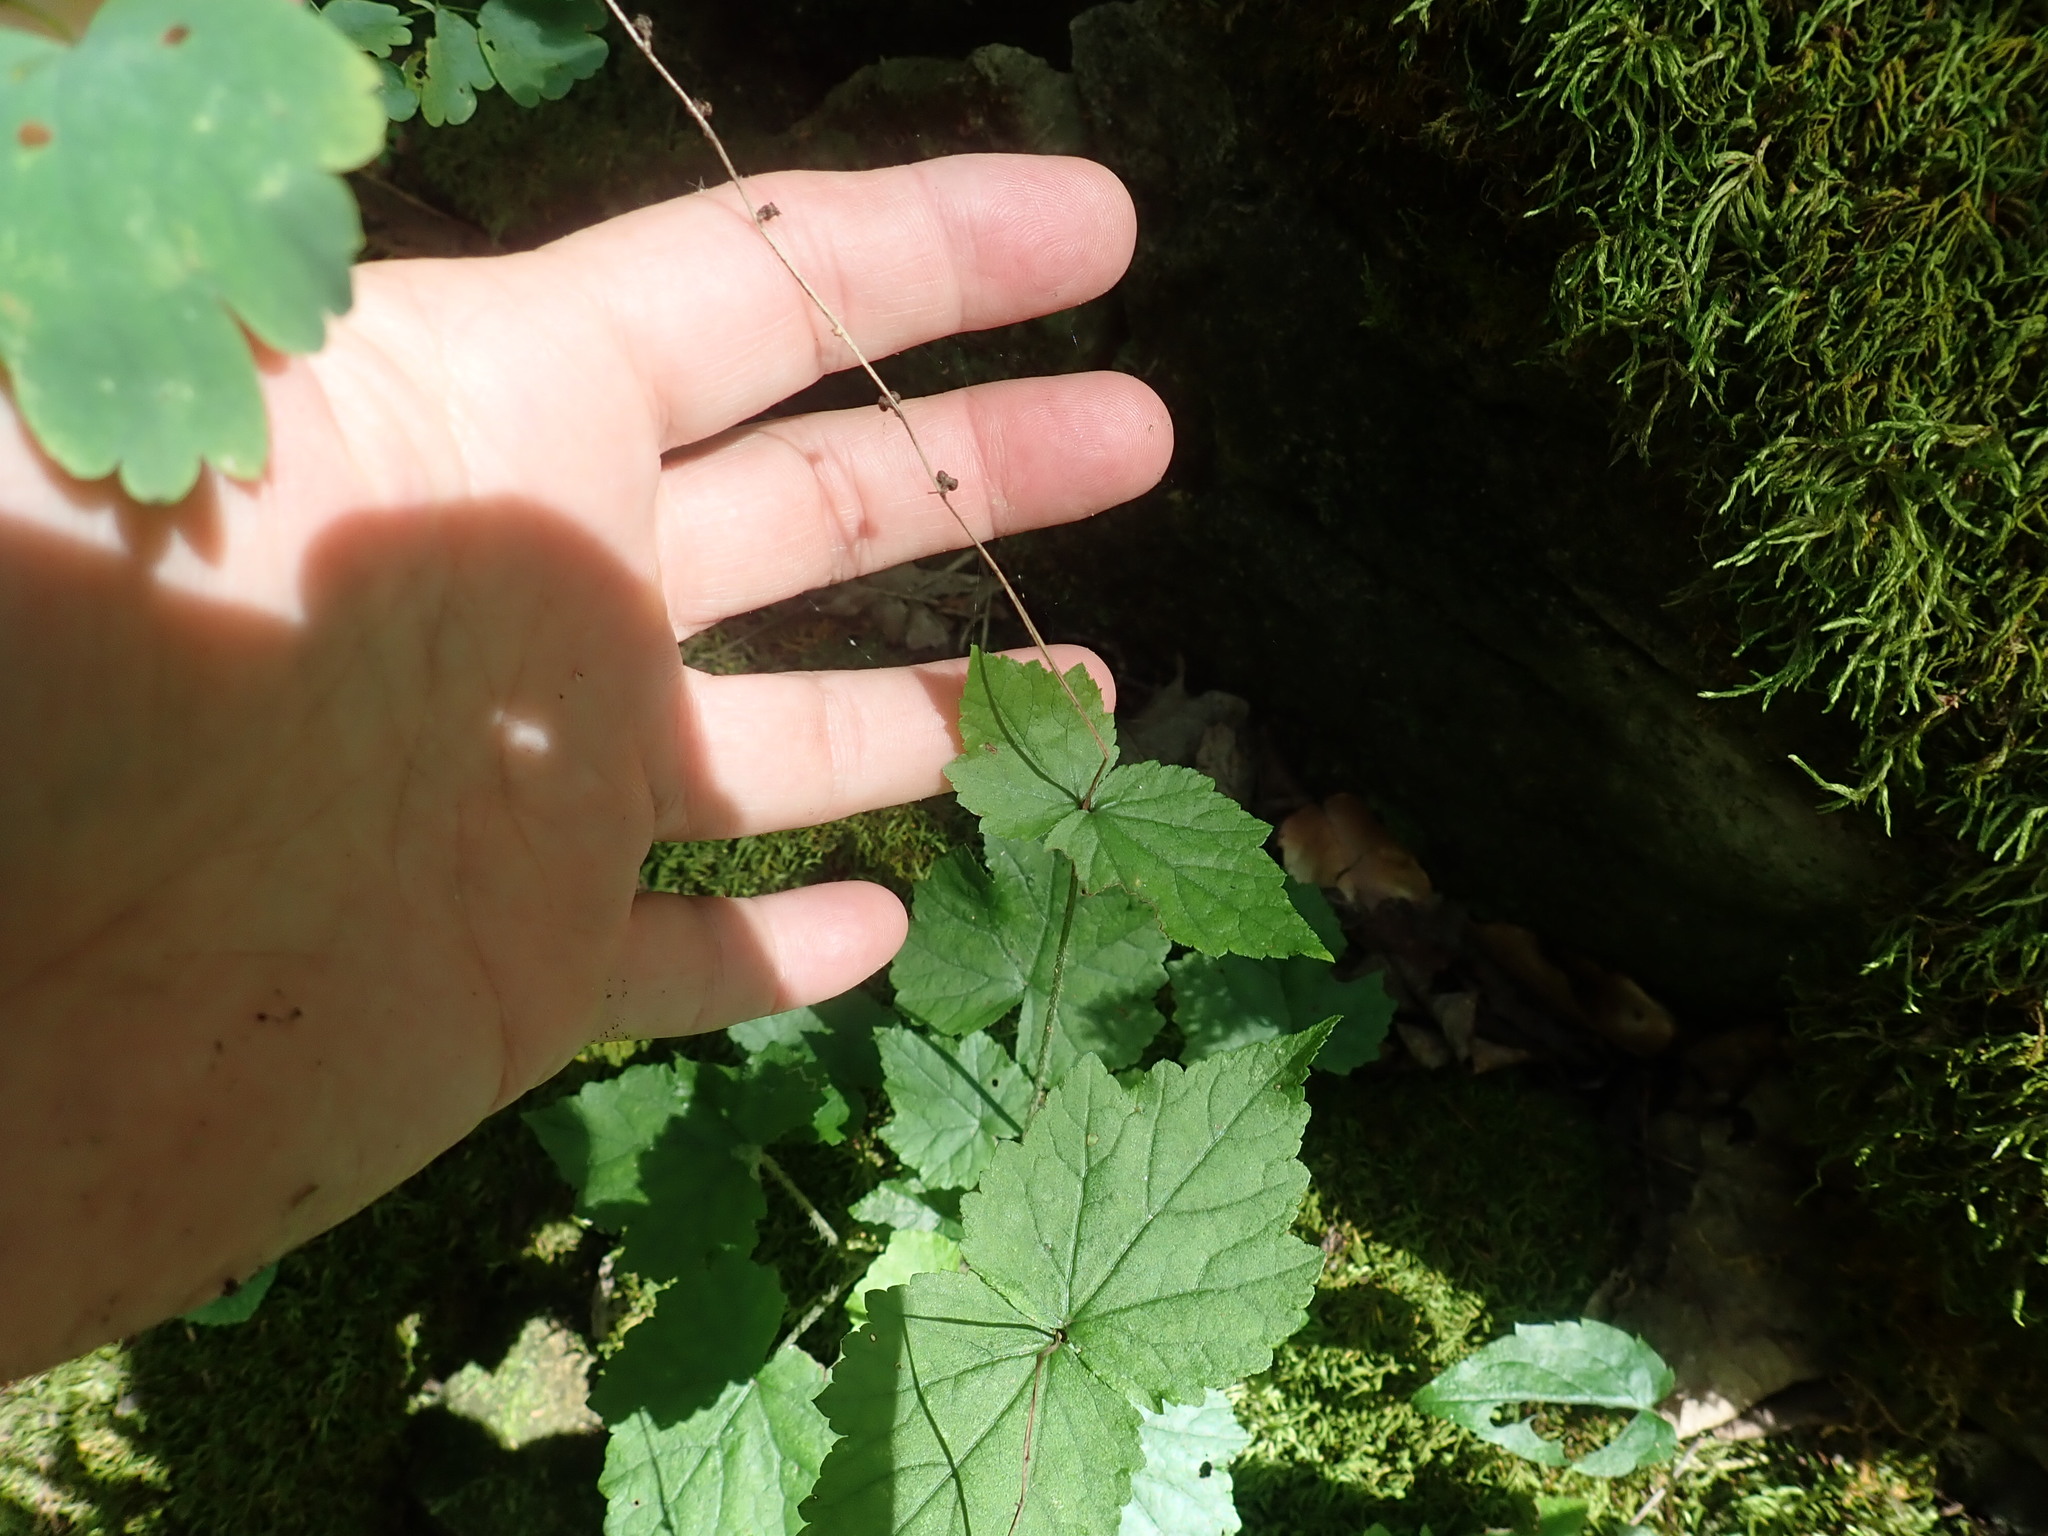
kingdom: Plantae
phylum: Tracheophyta
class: Magnoliopsida
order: Saxifragales
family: Saxifragaceae
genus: Mitella
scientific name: Mitella diphylla
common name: Coolwort
